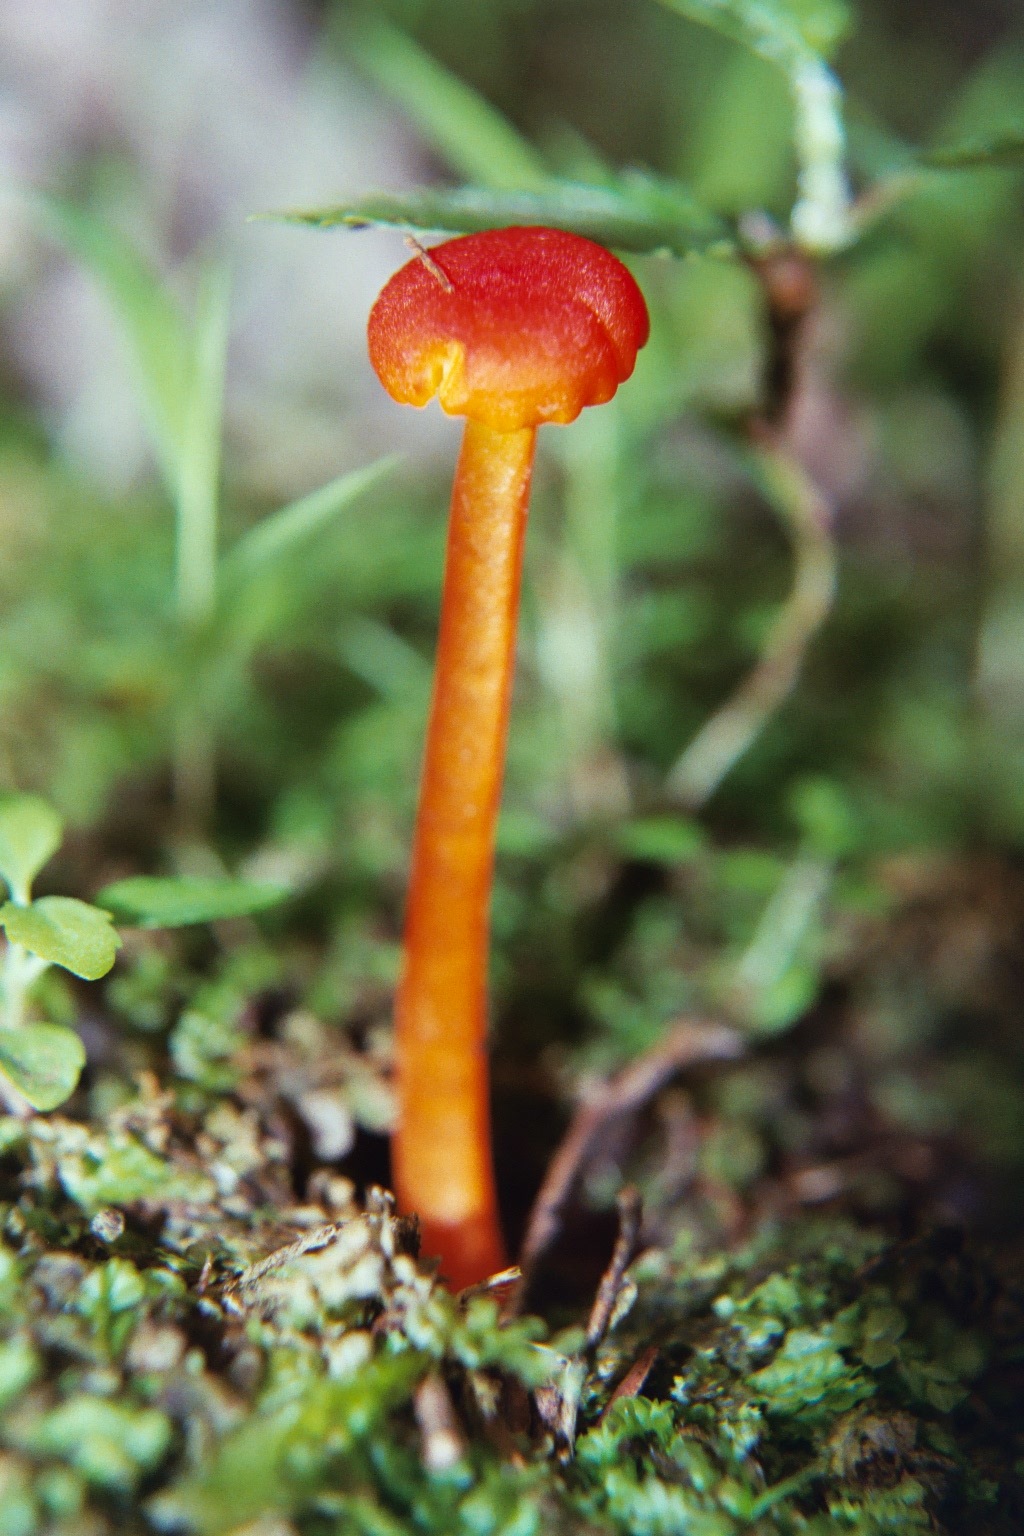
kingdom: Fungi
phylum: Basidiomycota
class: Agaricomycetes
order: Agaricales
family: Hygrophoraceae
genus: Hygrocybe
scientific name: Hygrocybe cantharellus
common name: Goblet waxcap
